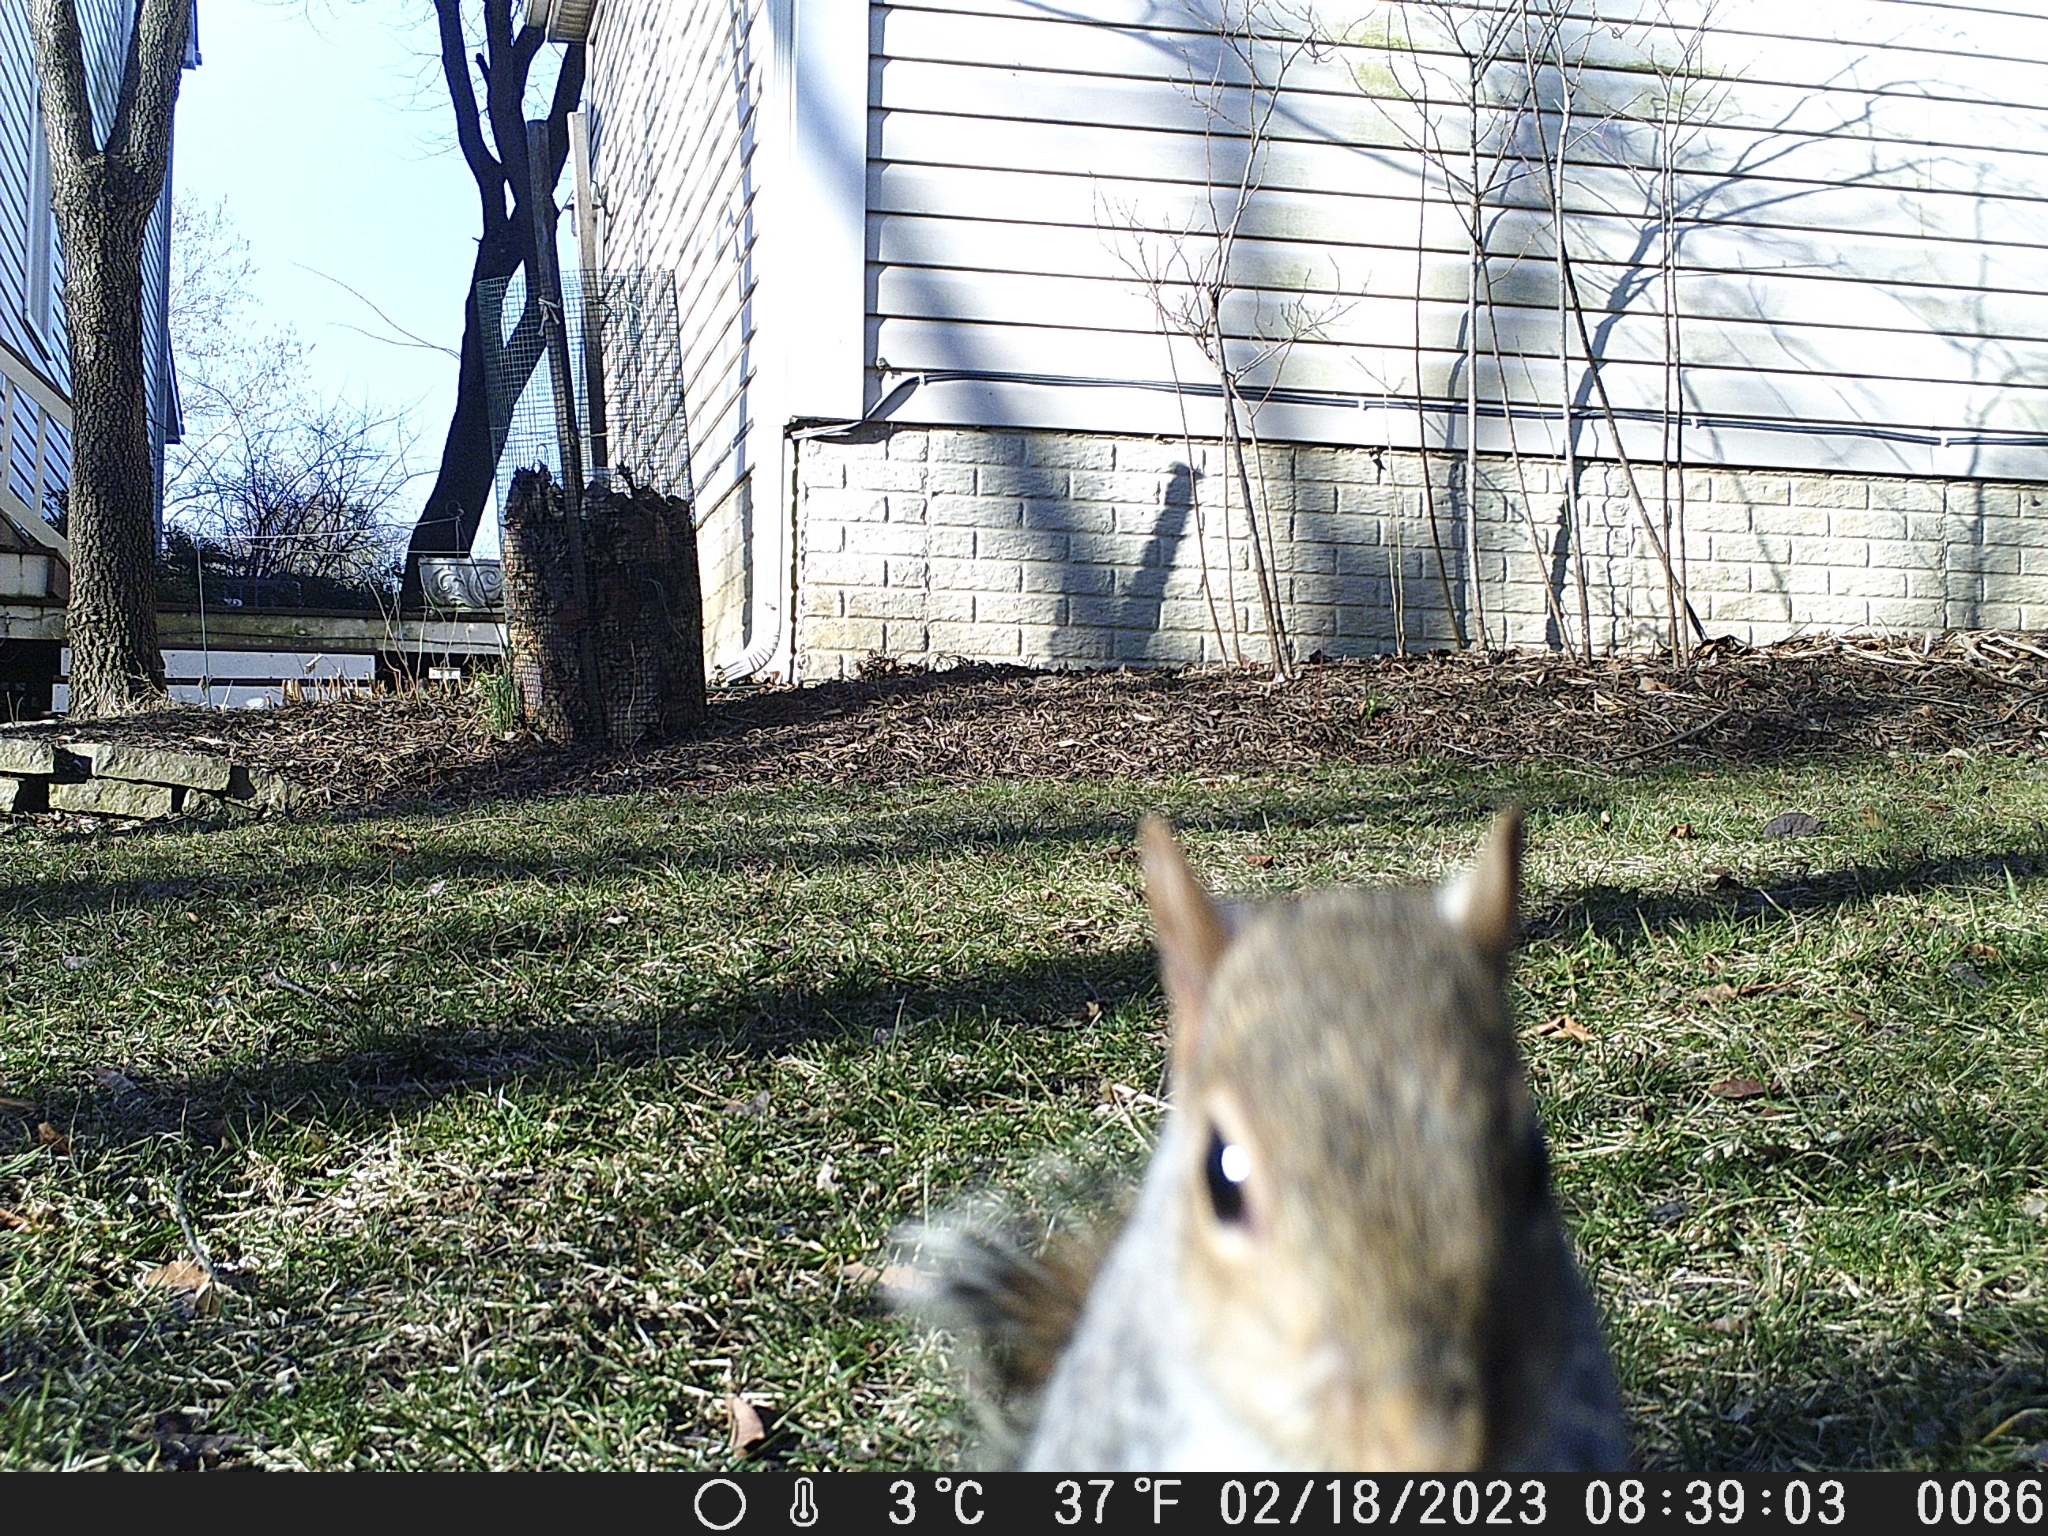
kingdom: Animalia
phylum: Chordata
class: Mammalia
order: Rodentia
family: Sciuridae
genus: Sciurus
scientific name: Sciurus carolinensis
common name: Eastern gray squirrel
